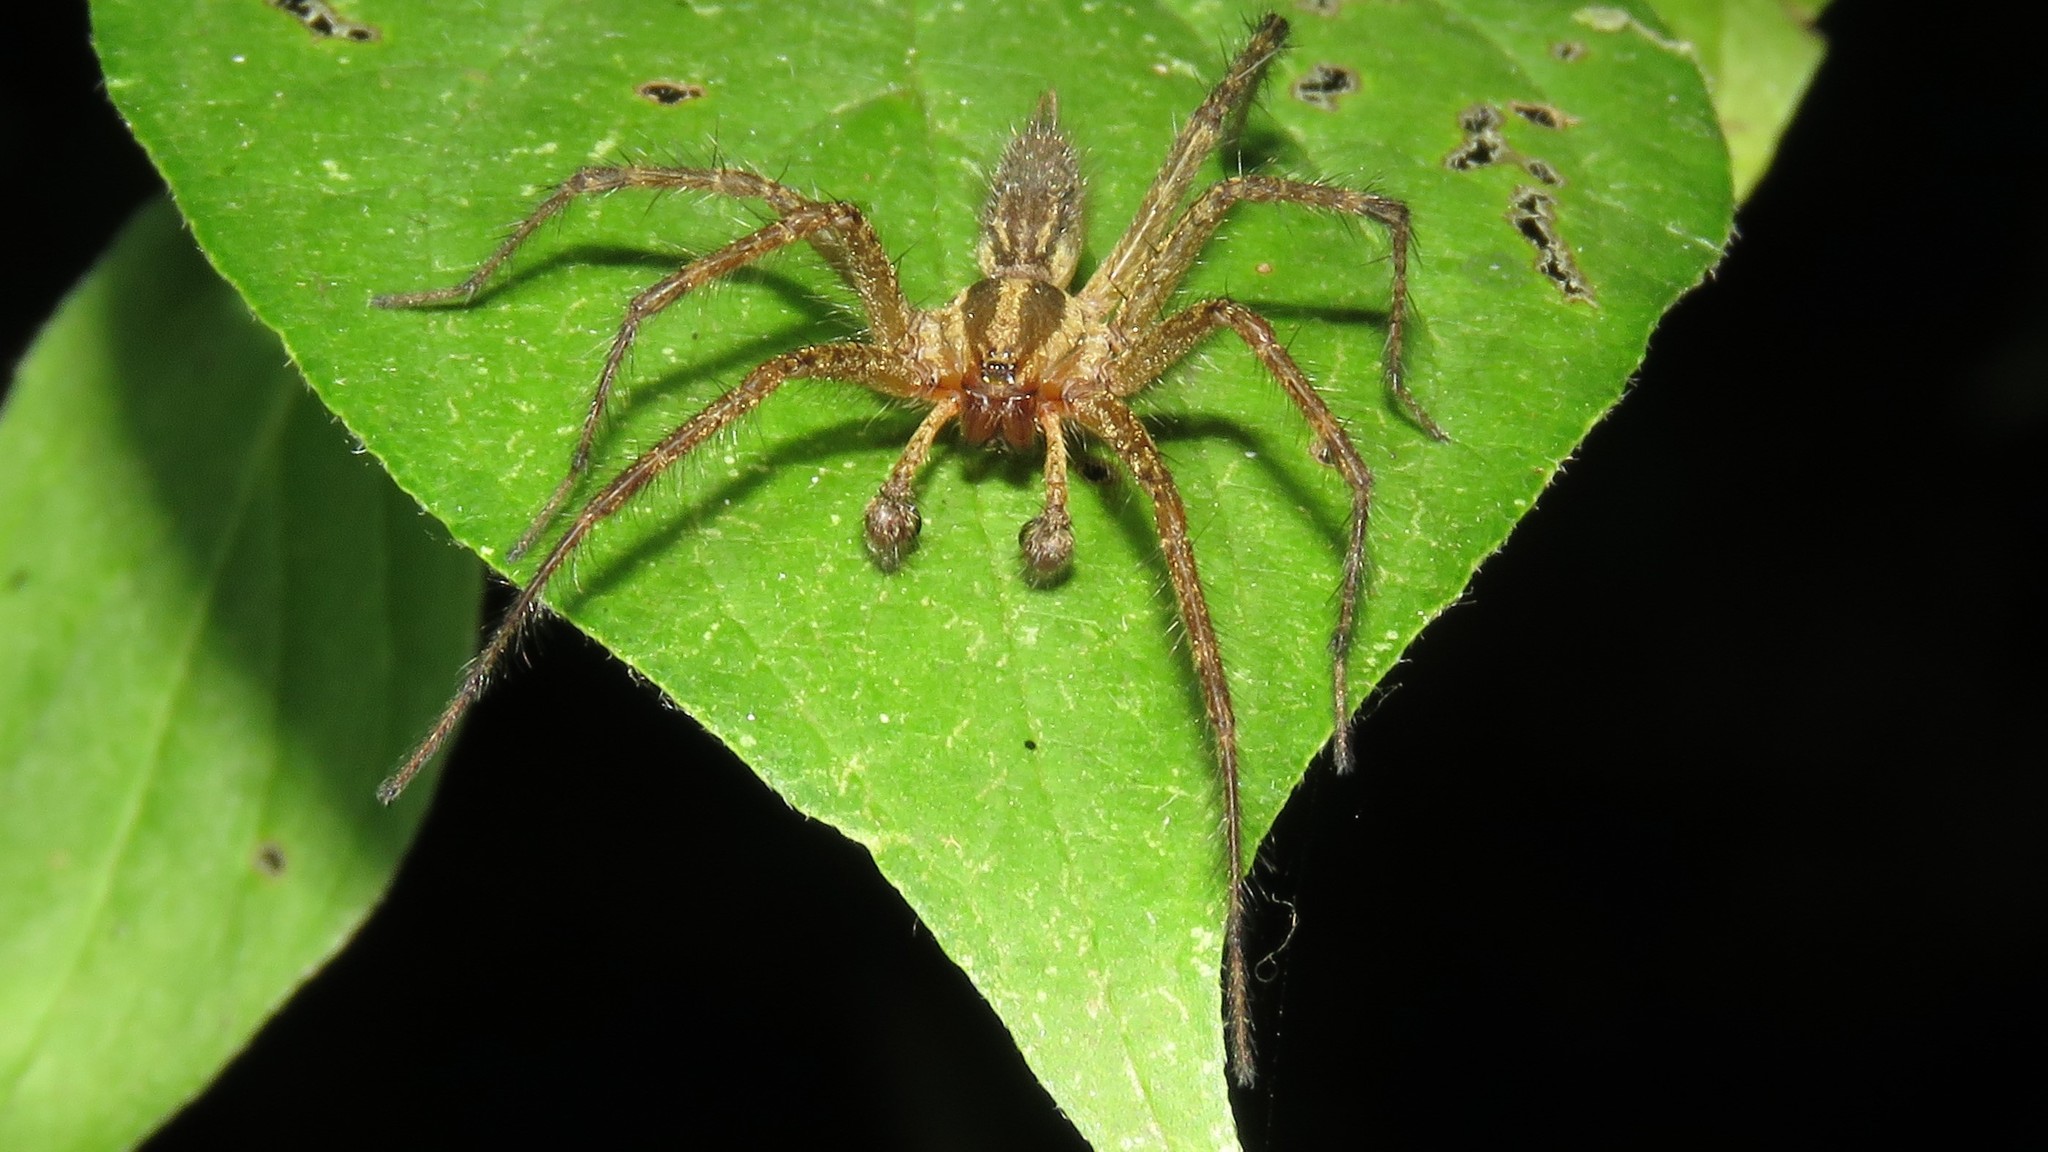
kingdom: Animalia
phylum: Arthropoda
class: Arachnida
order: Araneae
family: Agelenidae
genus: Agelenopsis
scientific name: Agelenopsis
